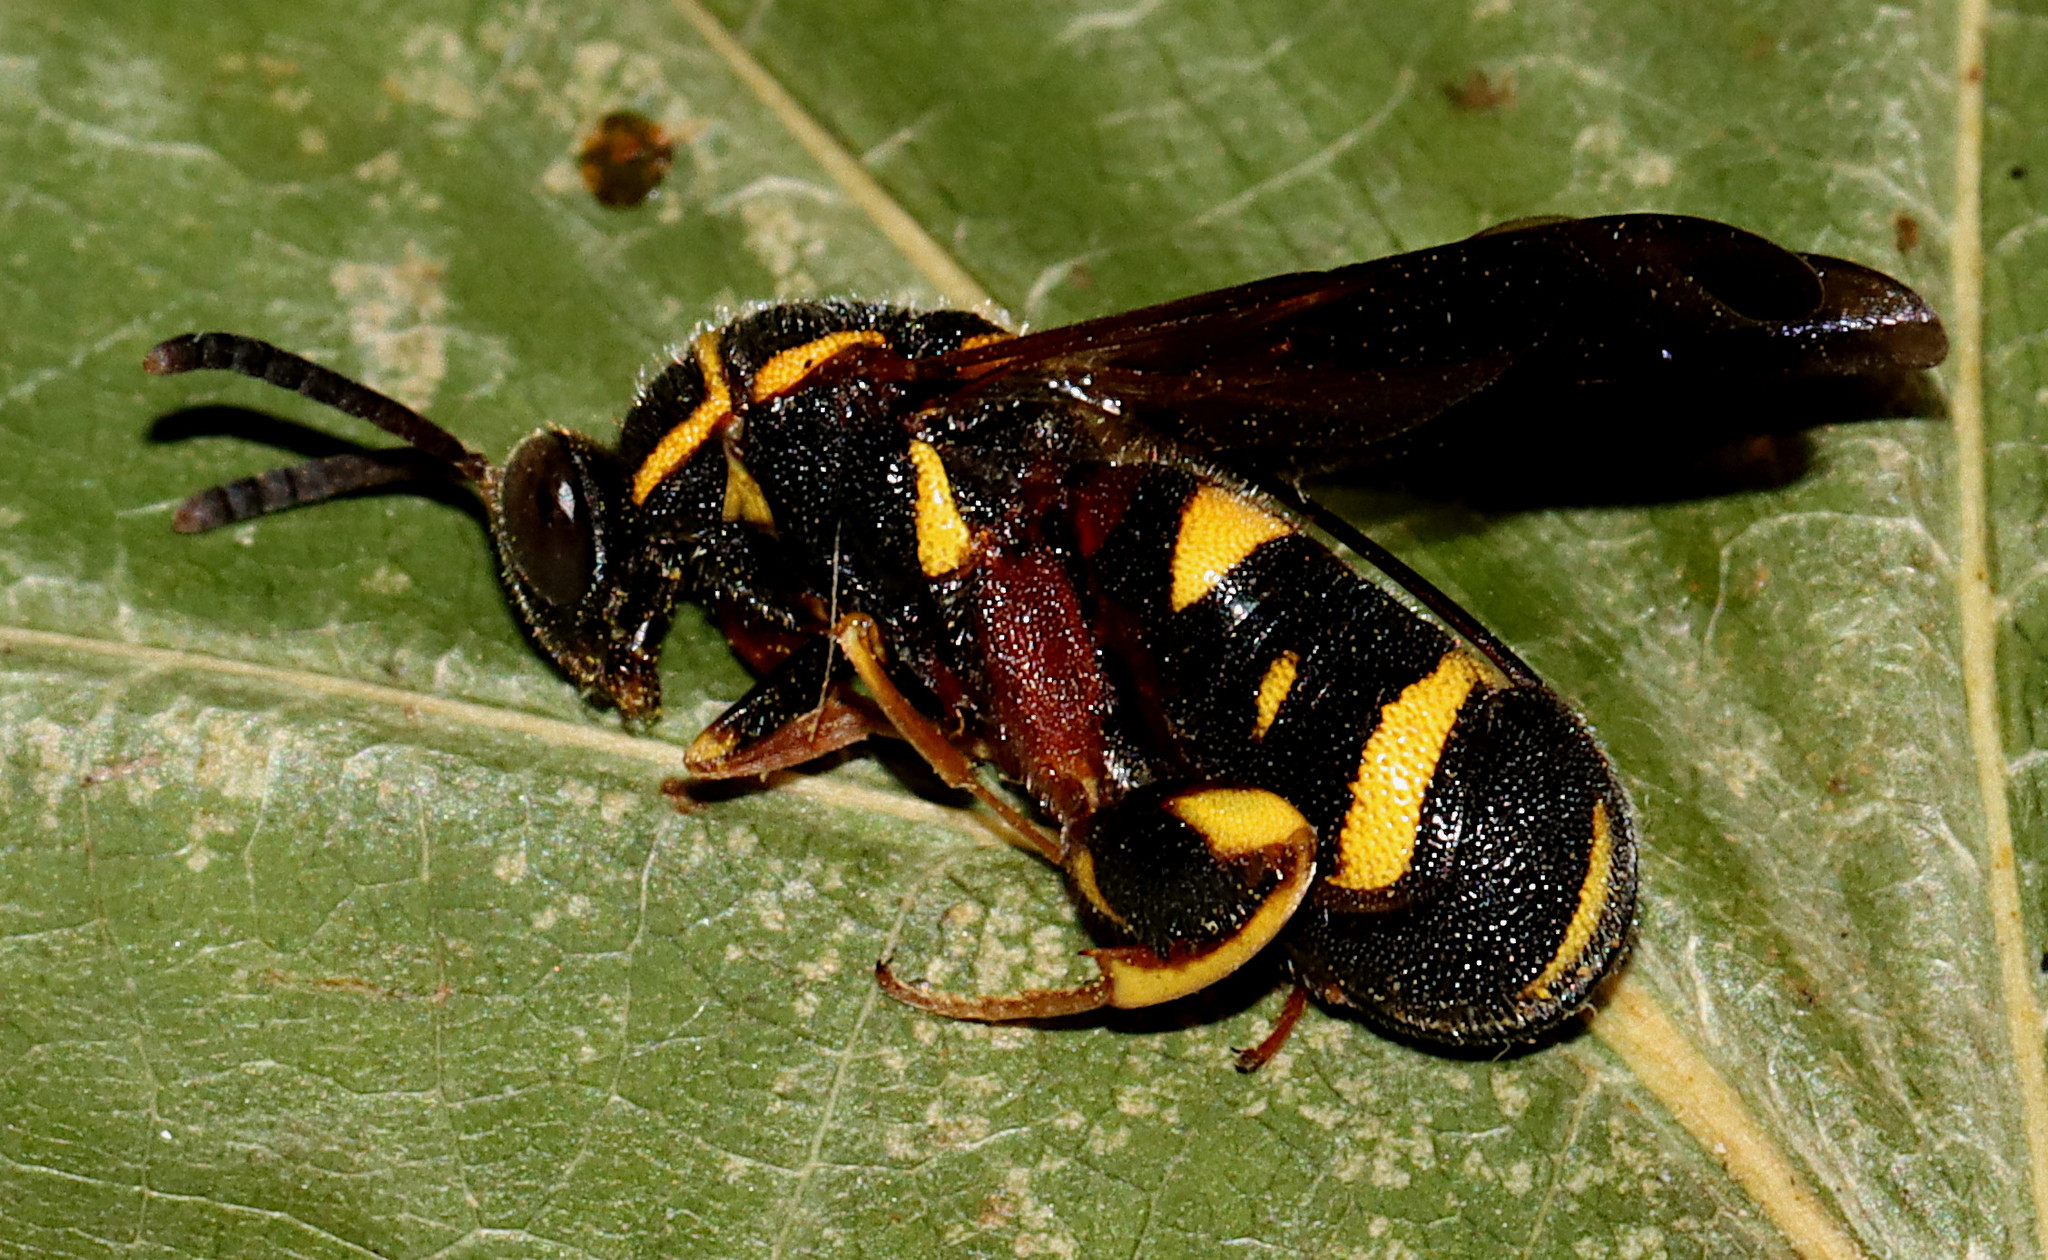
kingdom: Animalia
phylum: Arthropoda
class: Insecta
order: Hymenoptera
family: Leucospidae
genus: Leucospis
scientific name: Leucospis affinis
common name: Wasp
